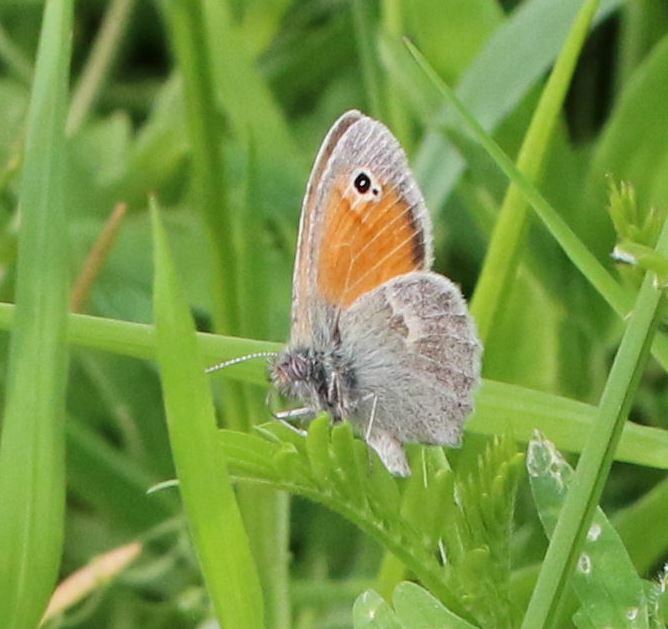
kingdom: Animalia
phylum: Arthropoda
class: Insecta
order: Lepidoptera
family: Nymphalidae
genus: Coenonympha
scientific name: Coenonympha pamphilus
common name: Small heath
